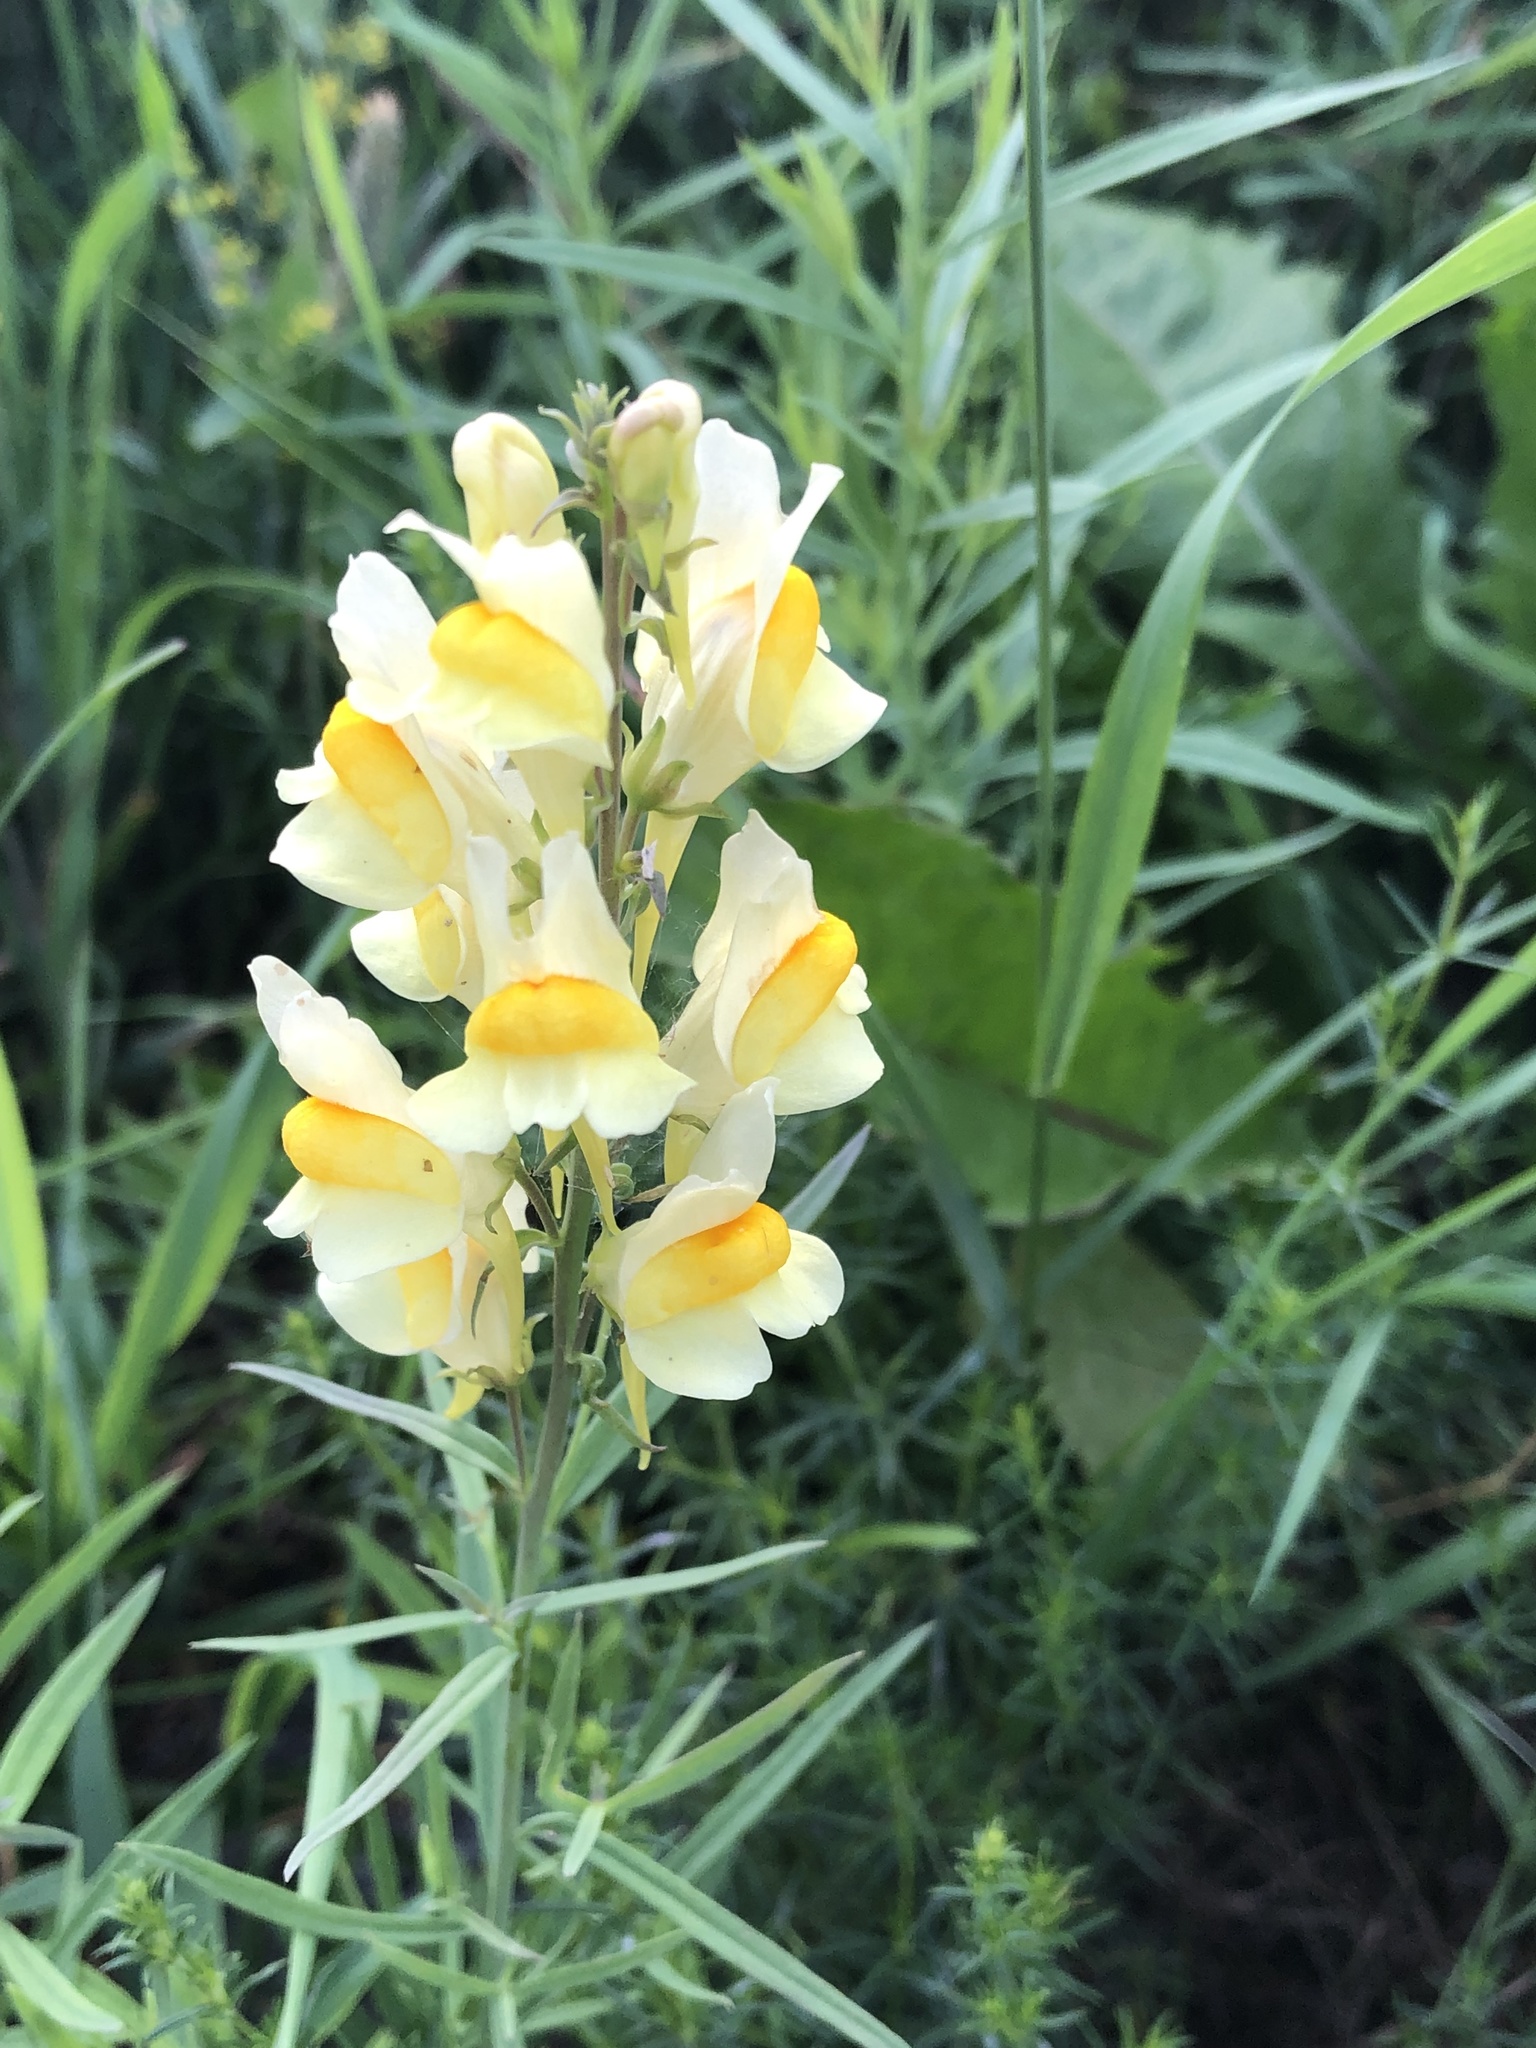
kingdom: Plantae
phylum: Tracheophyta
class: Magnoliopsida
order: Lamiales
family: Plantaginaceae
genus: Linaria
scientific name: Linaria vulgaris
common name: Butter and eggs
